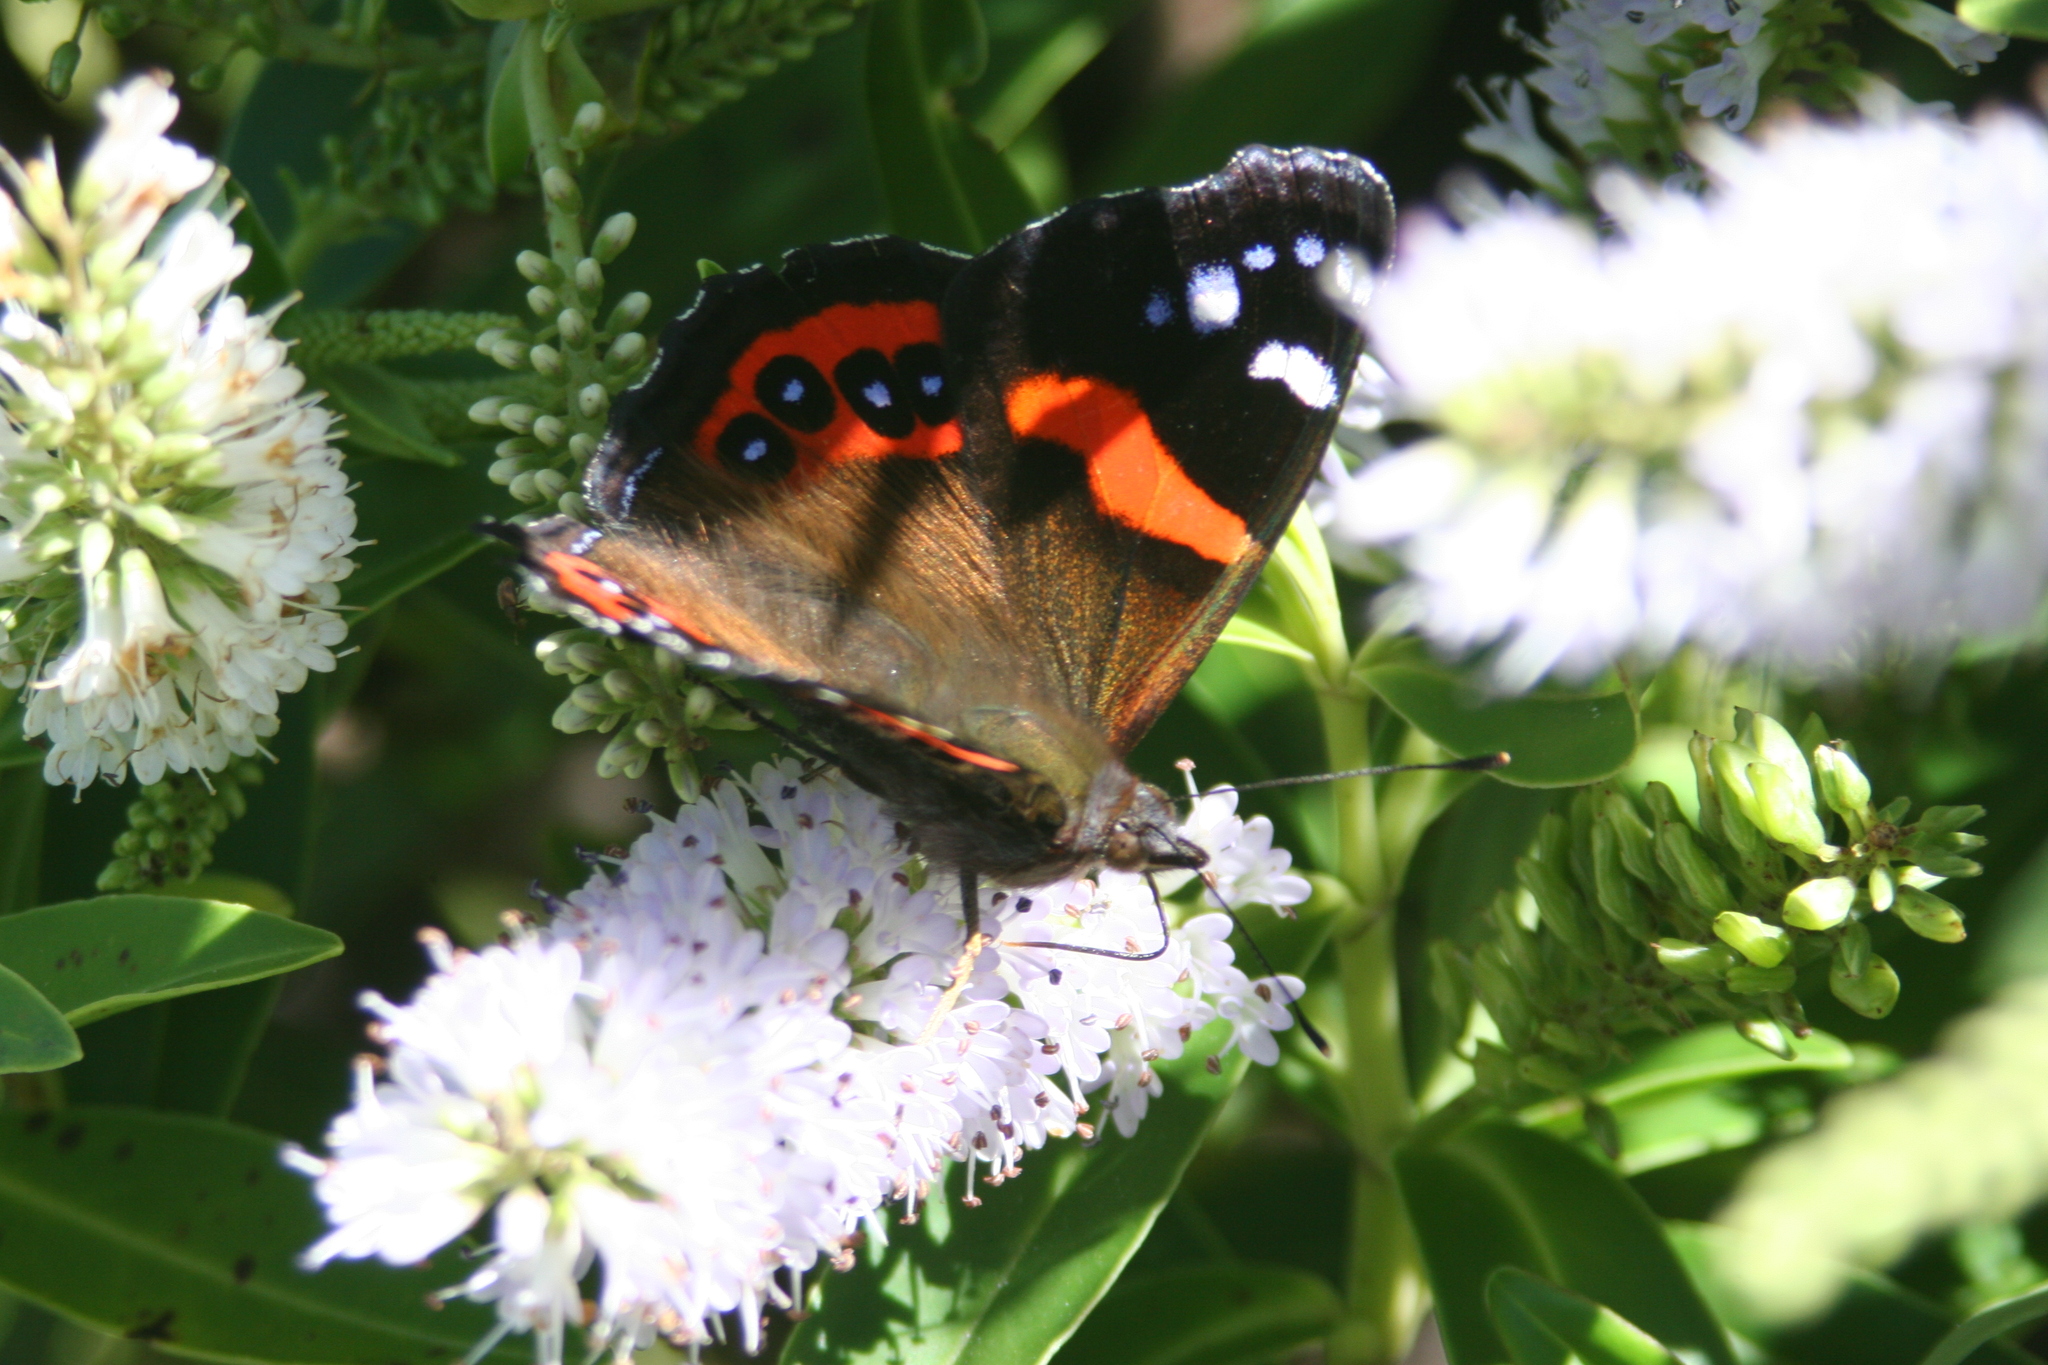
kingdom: Animalia
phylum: Arthropoda
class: Insecta
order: Lepidoptera
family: Nymphalidae
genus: Vanessa
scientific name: Vanessa gonerilla
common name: New zealand red admiral
